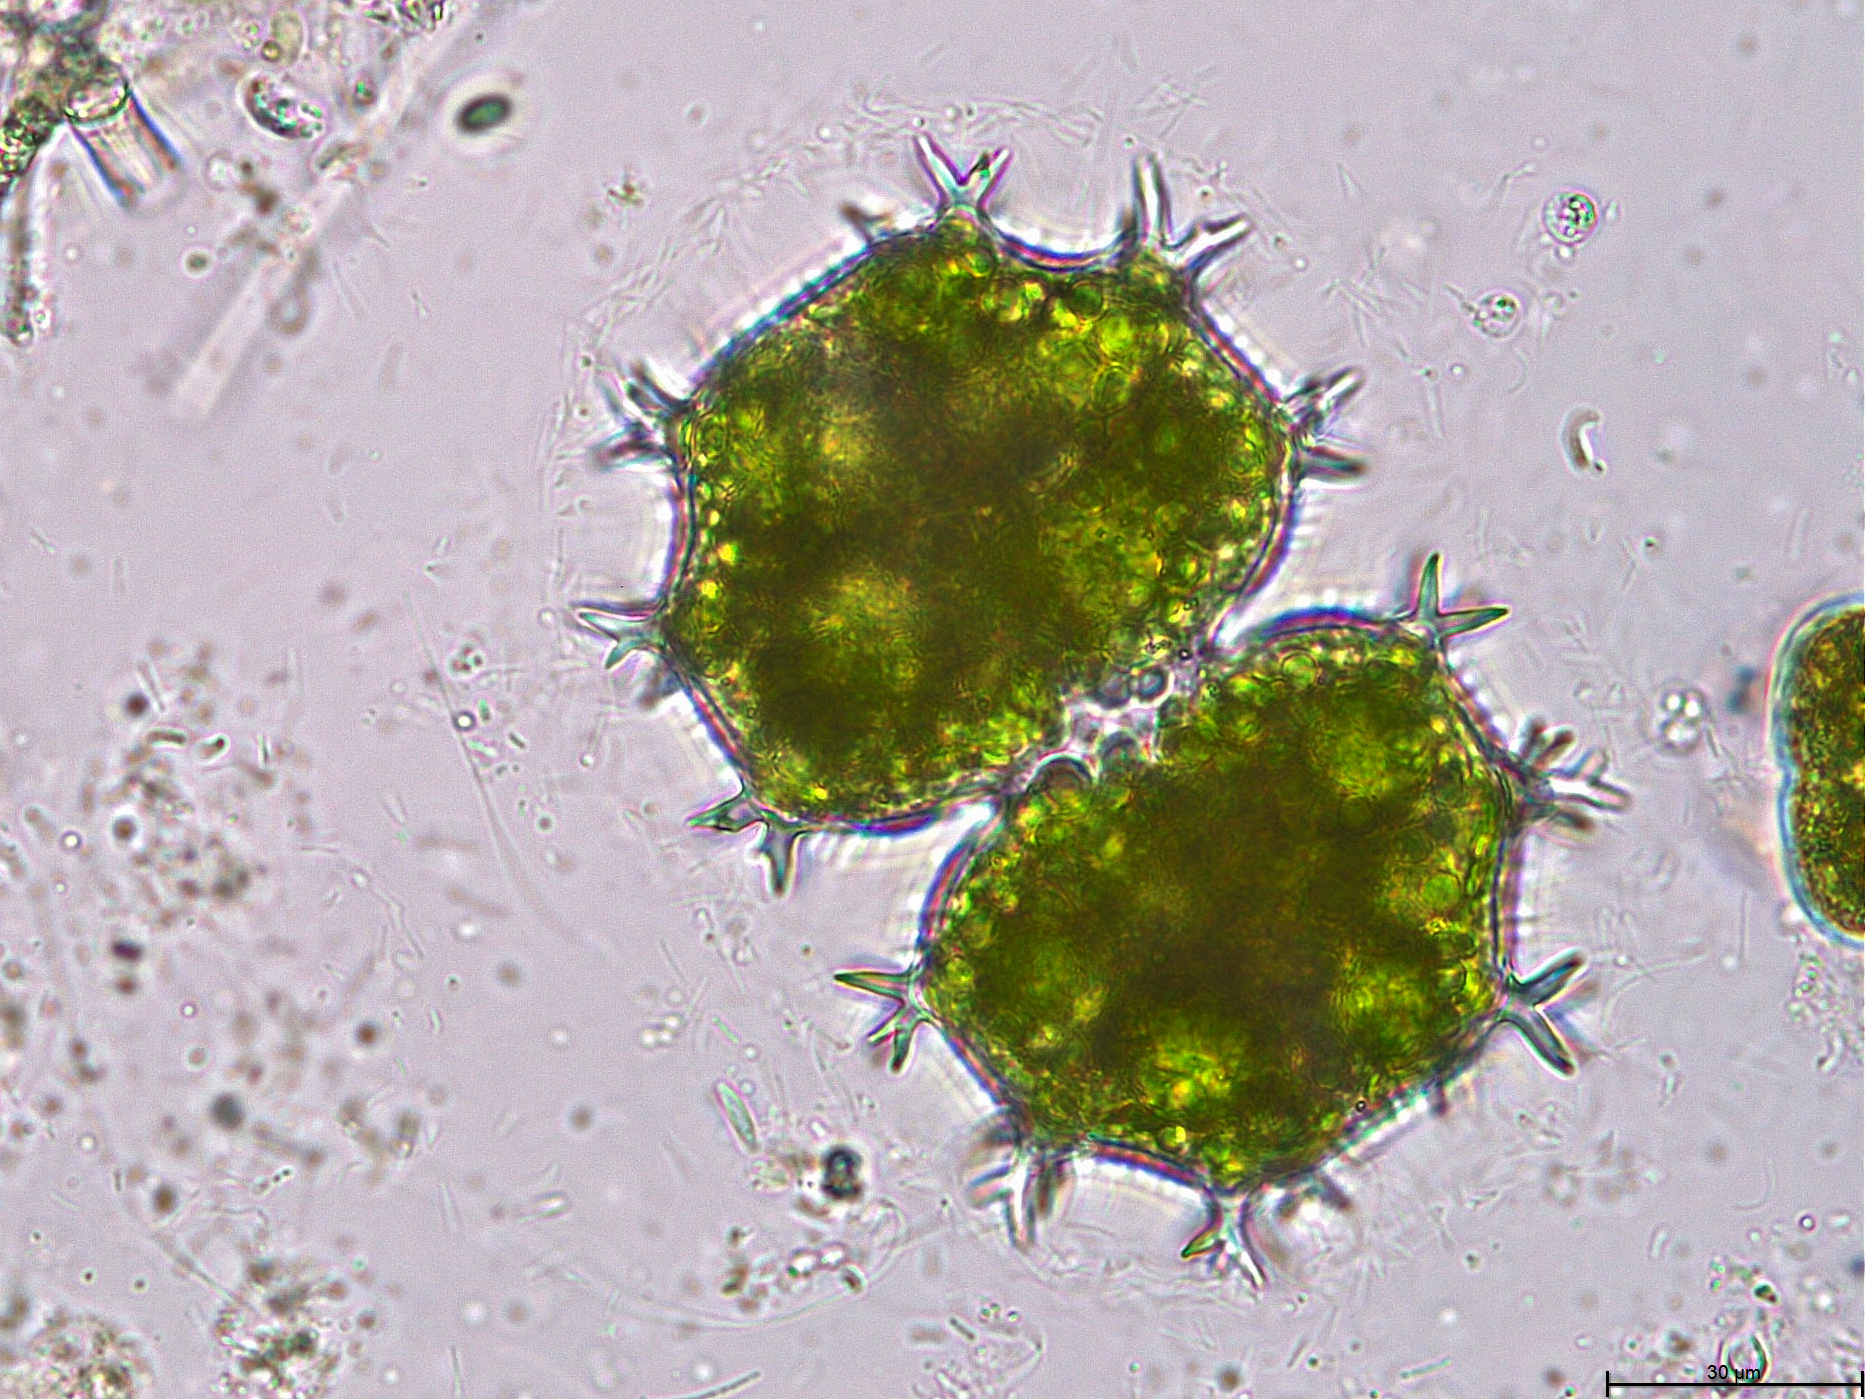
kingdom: Plantae
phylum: Charophyta
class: Conjugatophyceae
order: Desmidiales
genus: Xanthidium
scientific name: Xanthidium armatum
